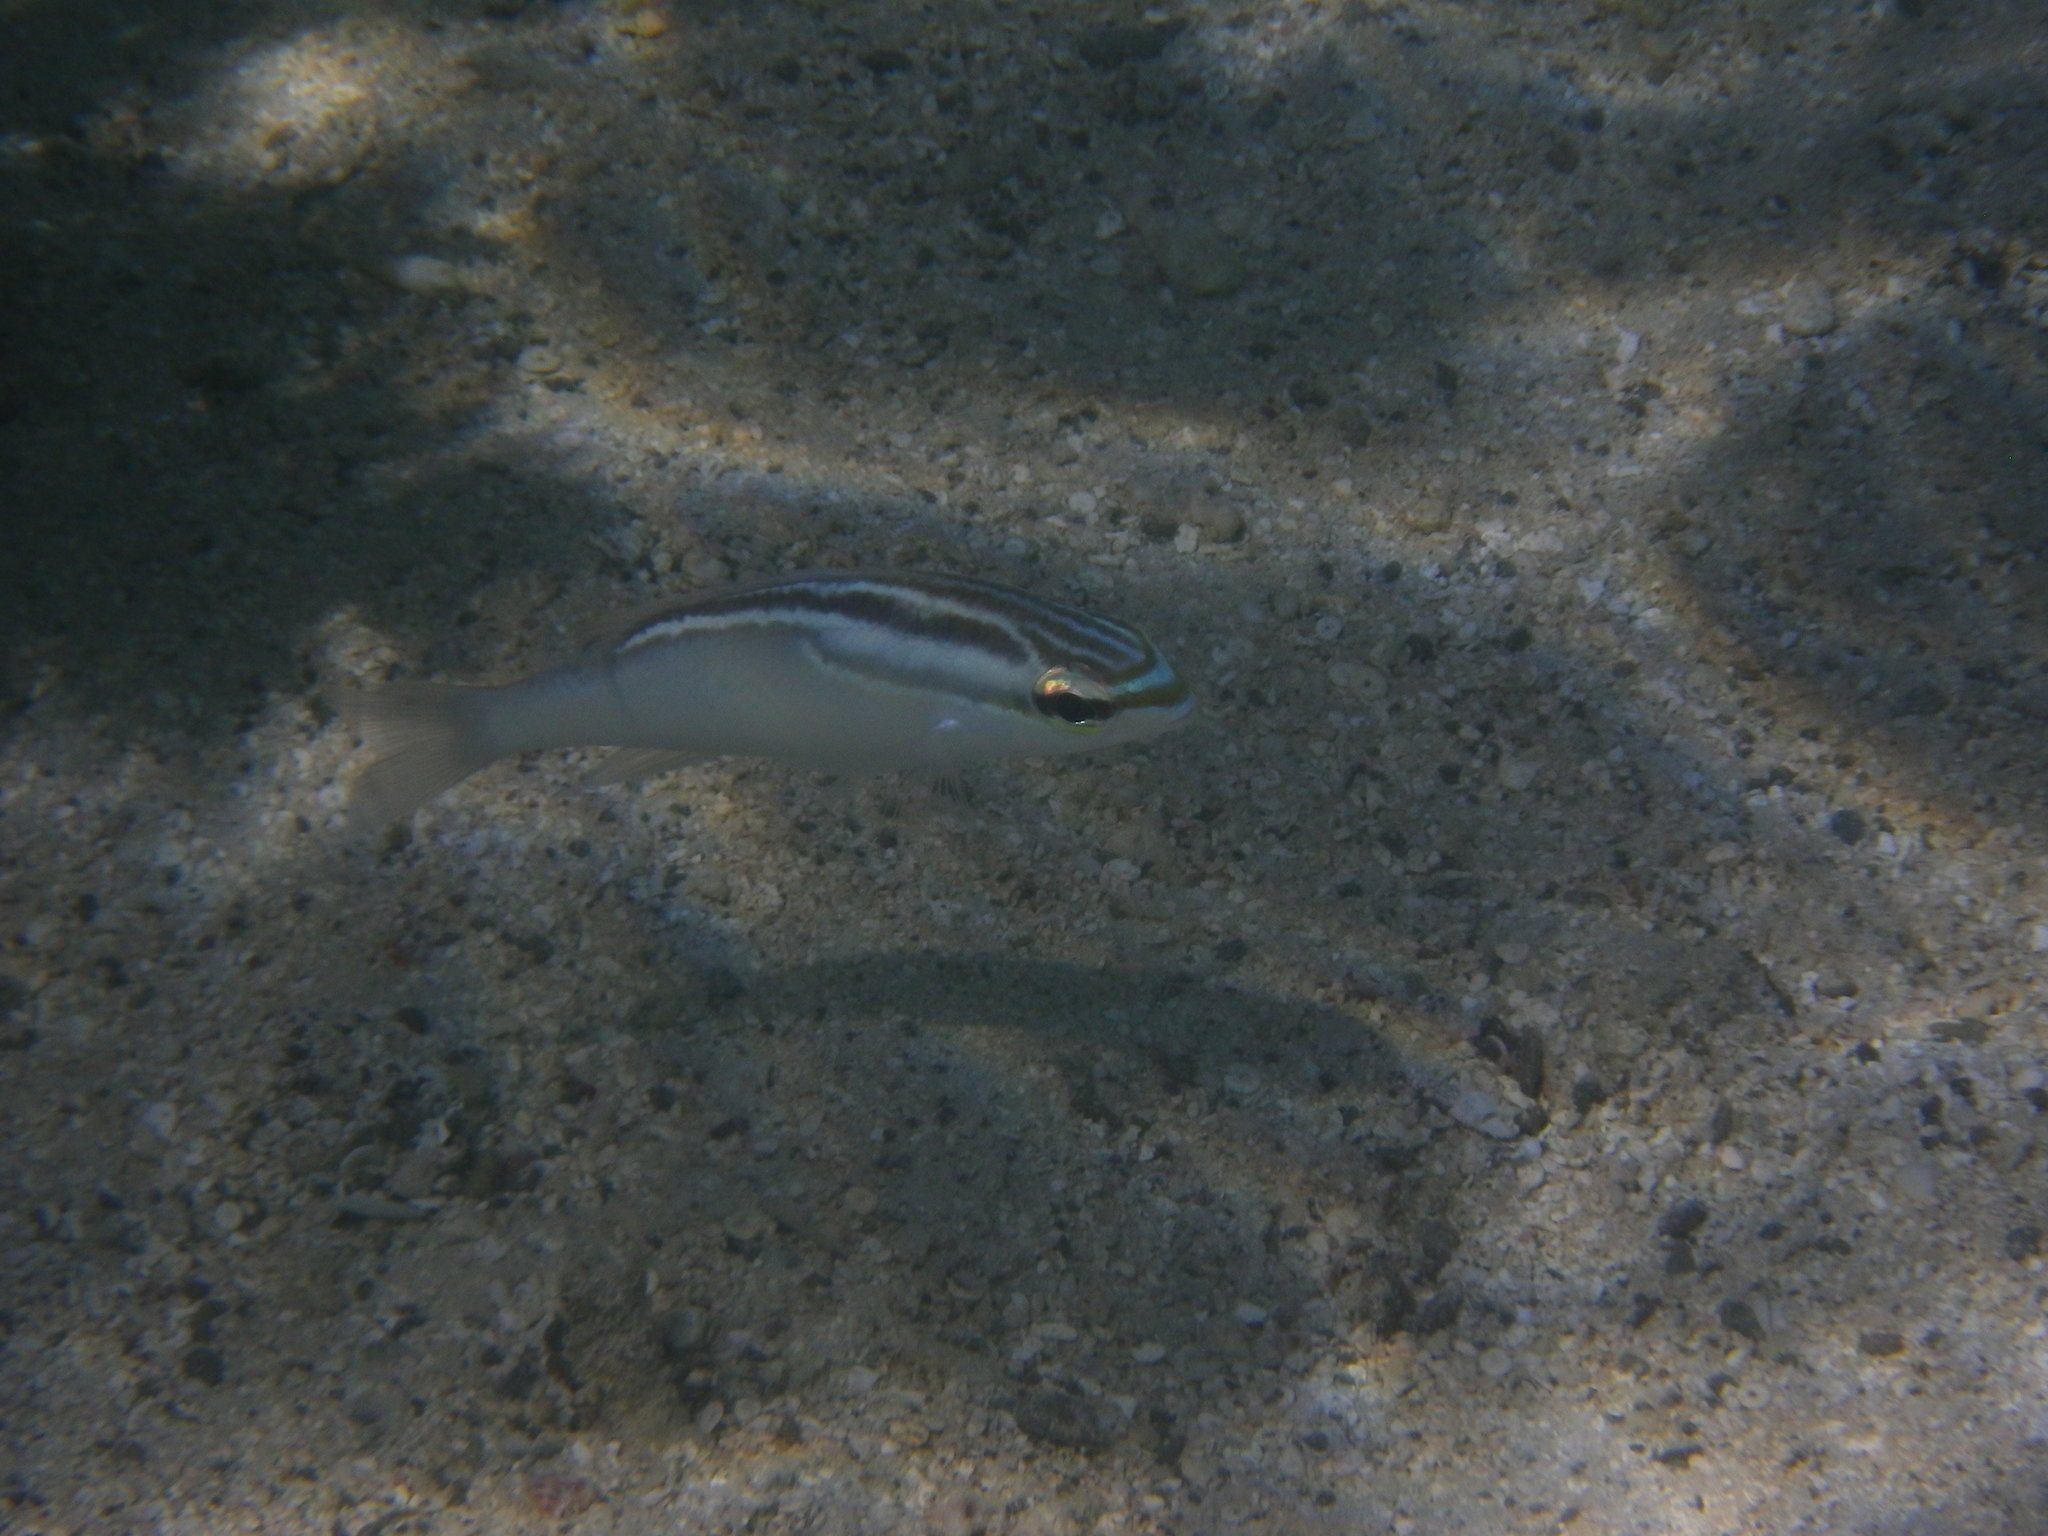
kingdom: Animalia
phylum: Chordata
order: Perciformes
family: Nemipteridae
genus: Scolopsis
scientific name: Scolopsis trilineata
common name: Three-lined monocle bream
